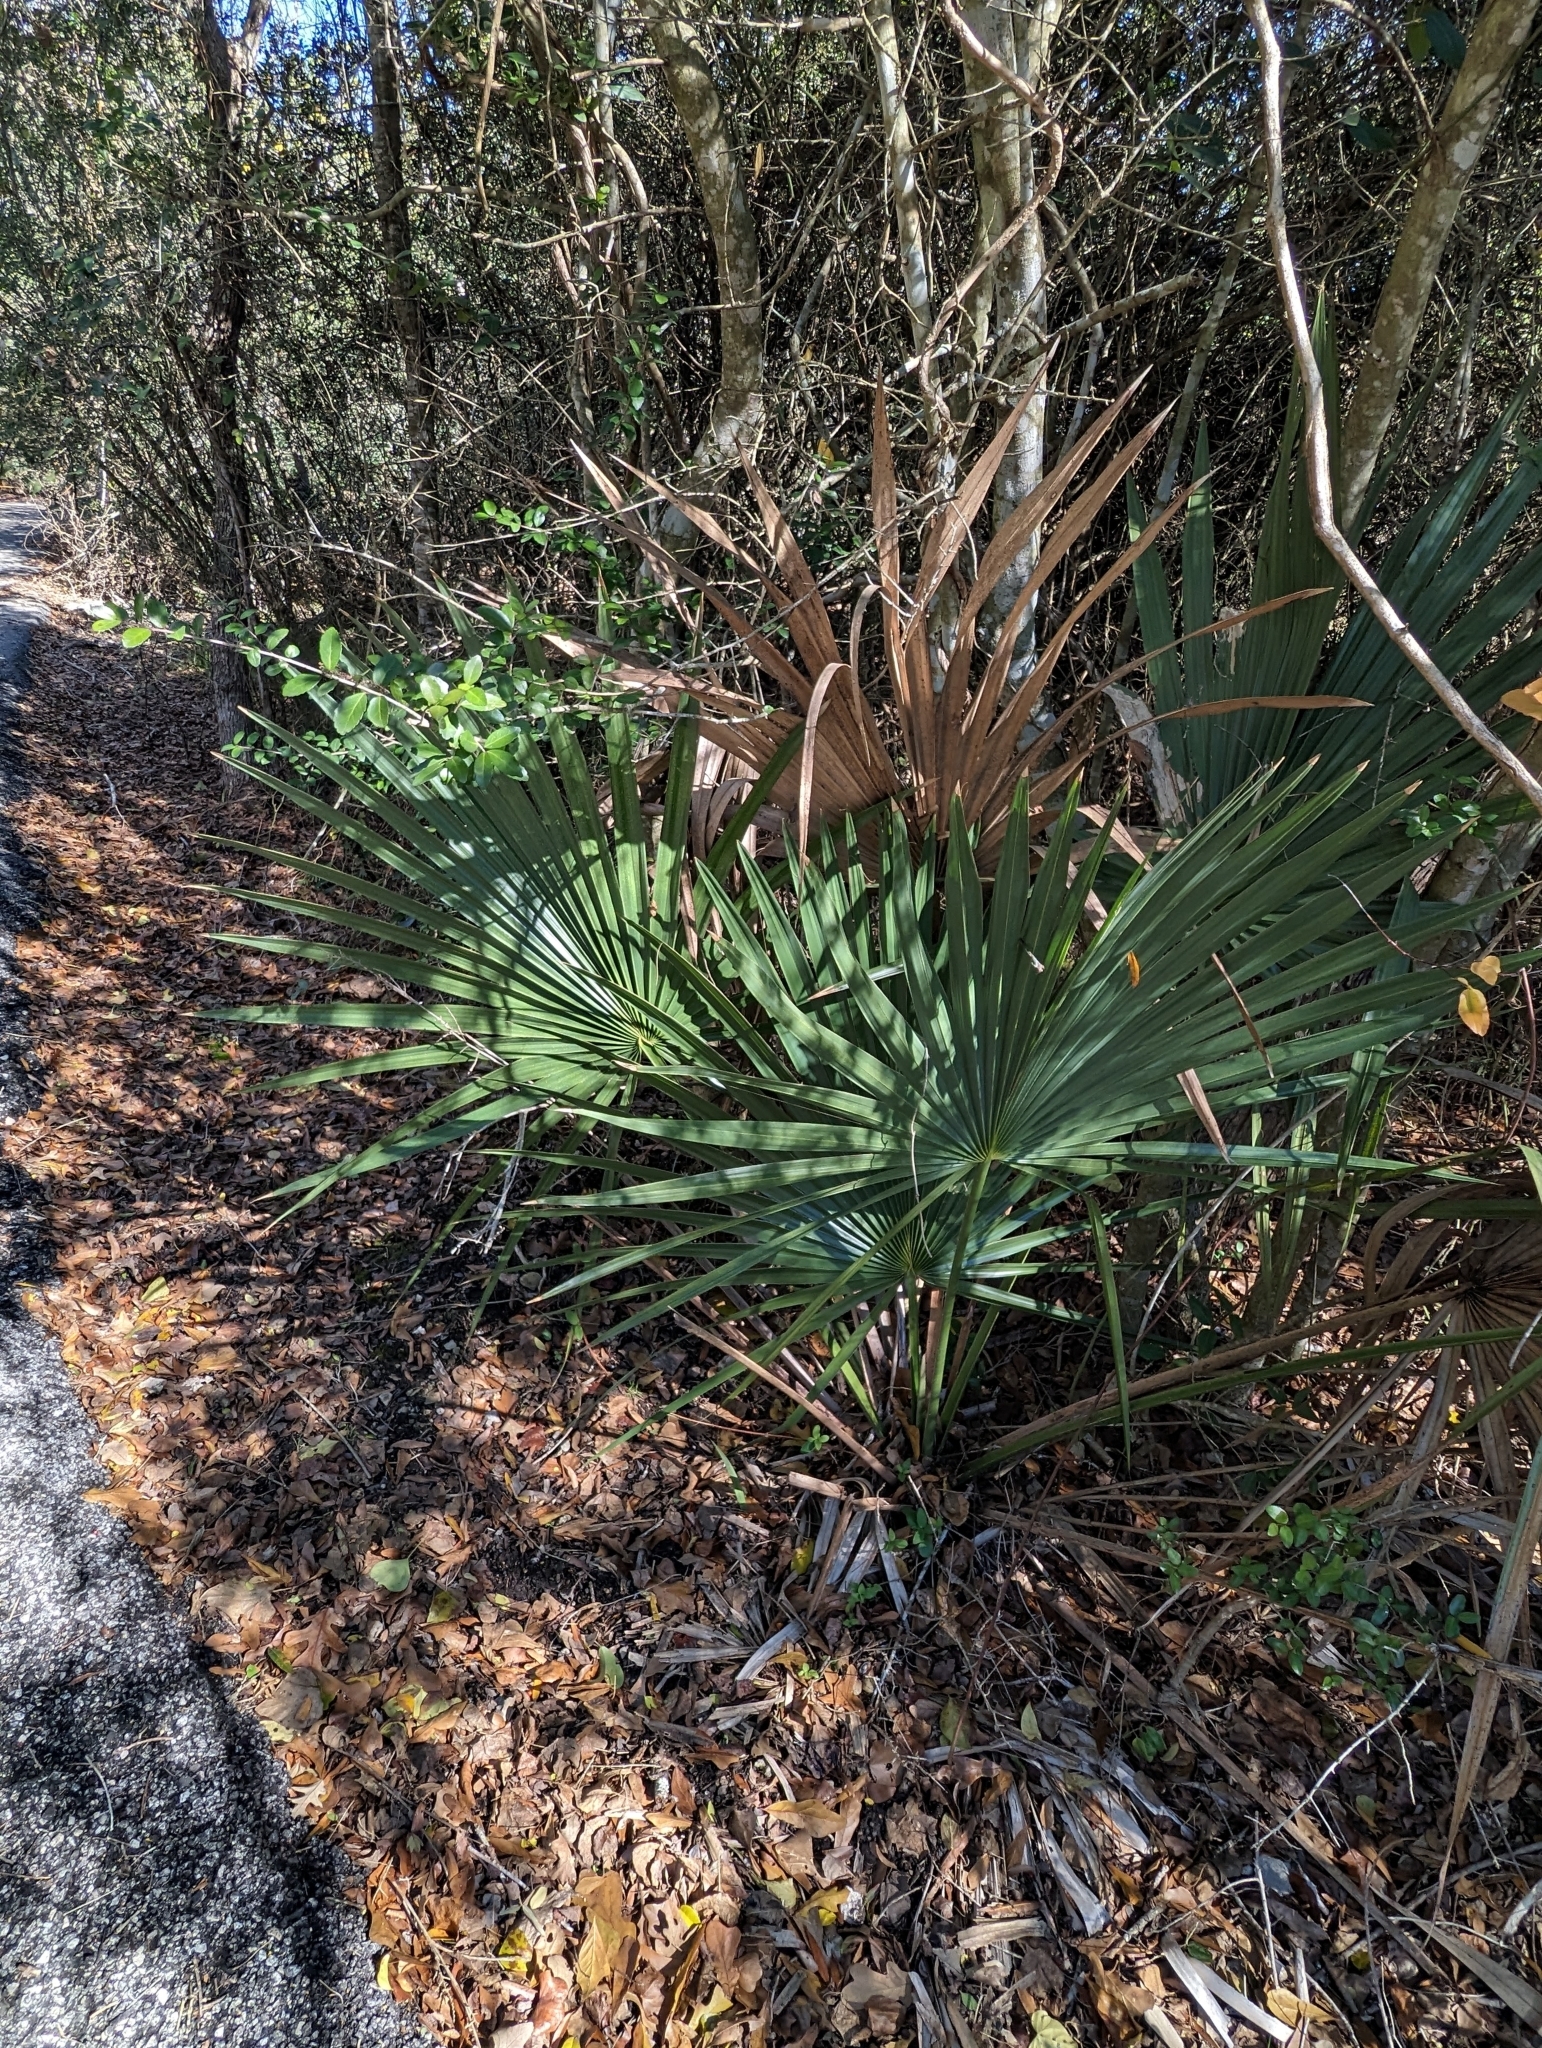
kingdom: Plantae
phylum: Tracheophyta
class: Liliopsida
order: Arecales
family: Arecaceae
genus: Sabal
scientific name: Sabal minor
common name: Dwarf palmetto
